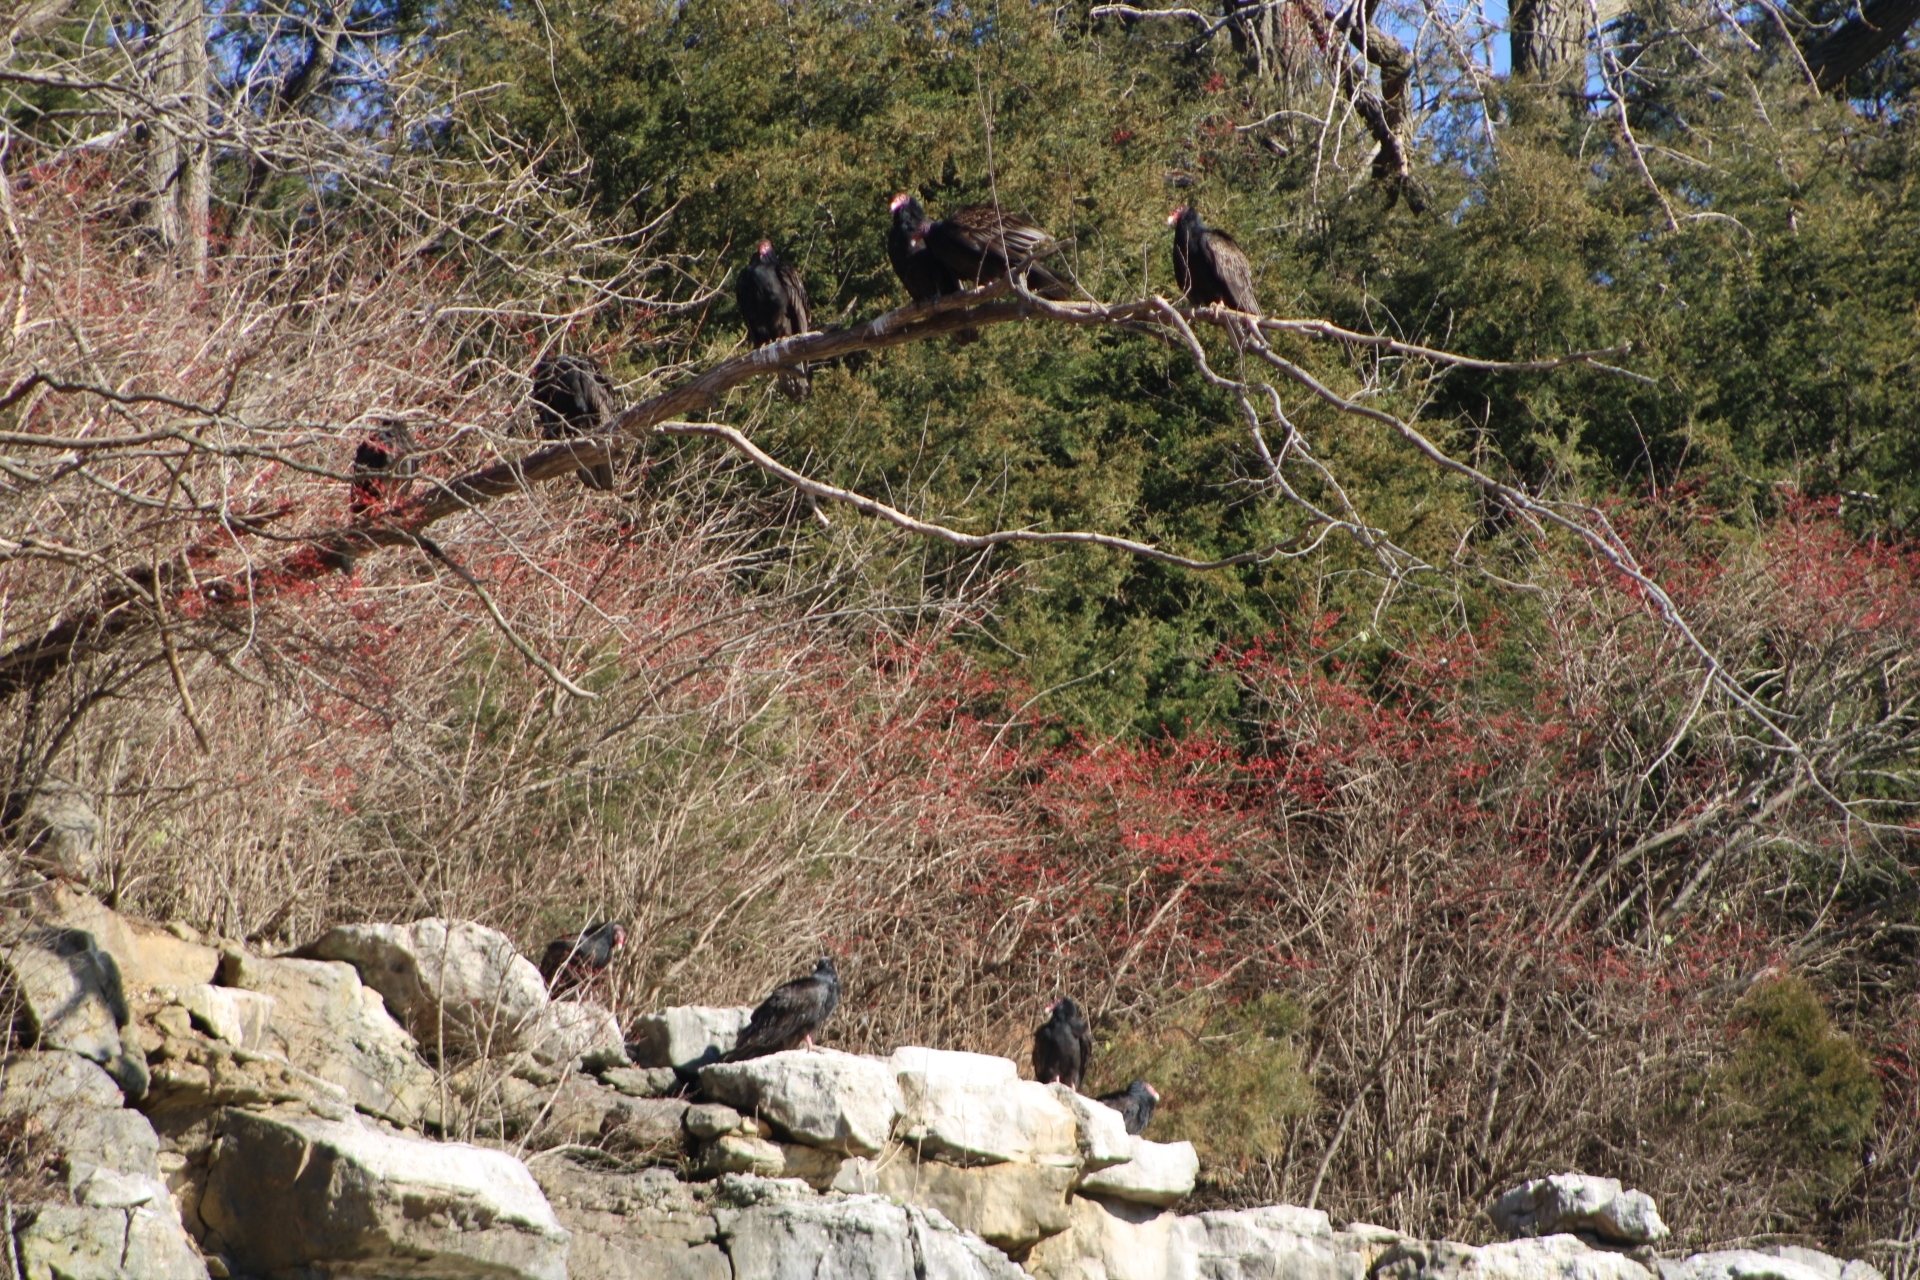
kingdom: Animalia
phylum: Chordata
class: Aves
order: Accipitriformes
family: Cathartidae
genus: Cathartes
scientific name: Cathartes aura
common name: Turkey vulture
